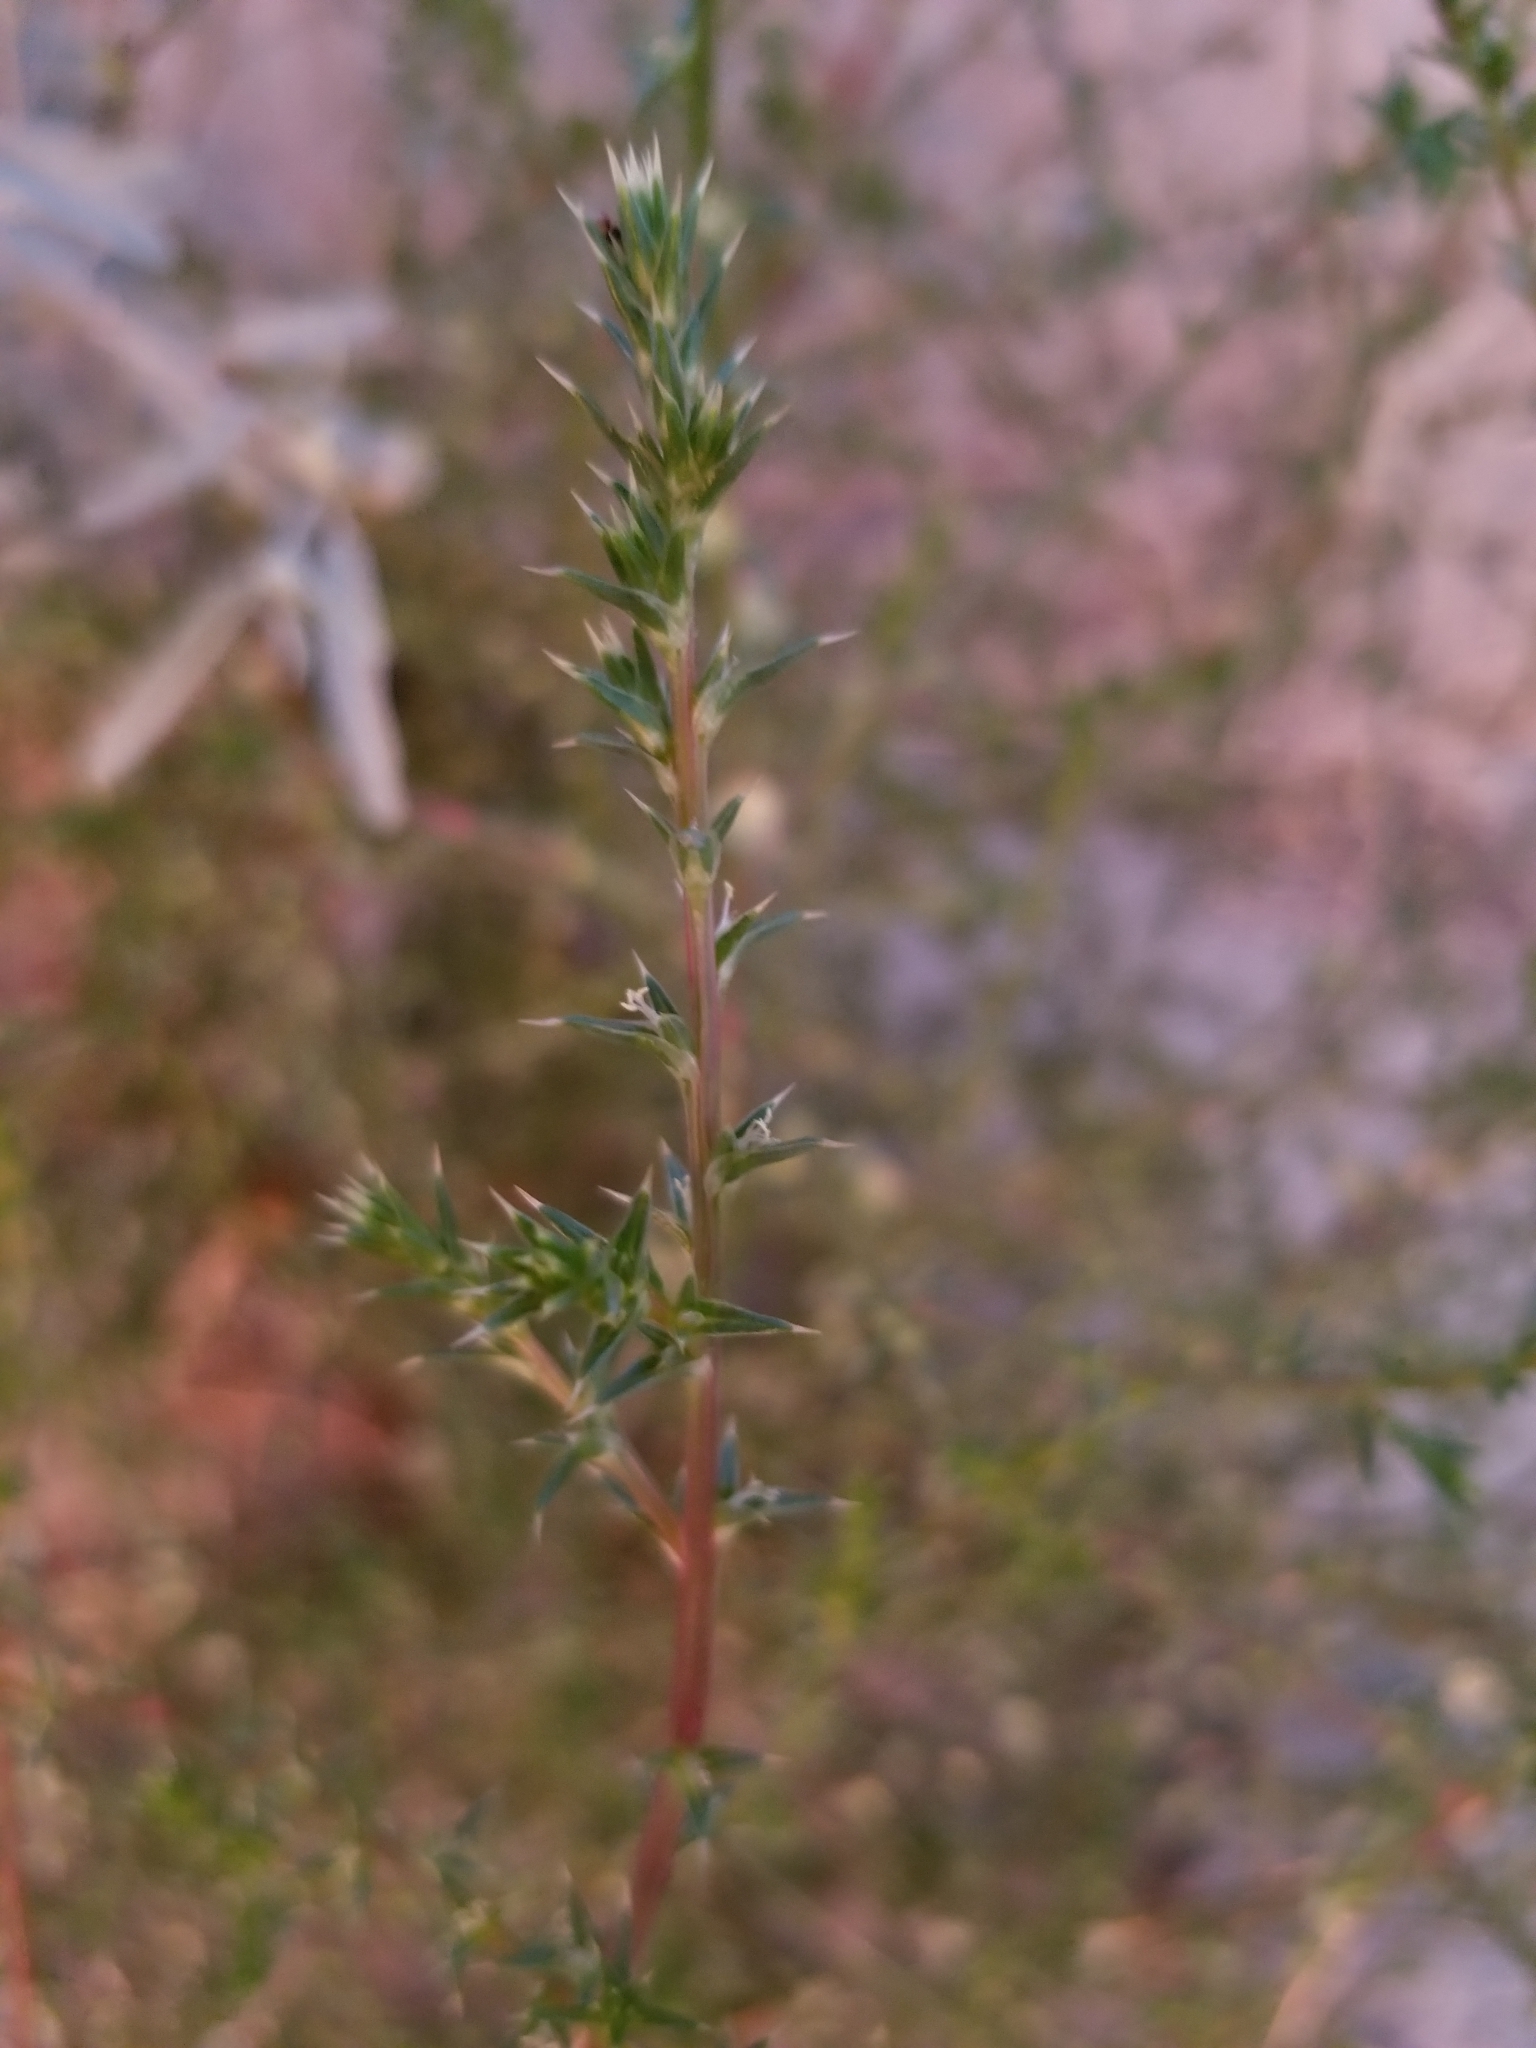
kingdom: Plantae
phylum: Tracheophyta
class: Magnoliopsida
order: Caryophyllales
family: Amaranthaceae
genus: Salsola
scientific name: Salsola tragus
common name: Prickly russian thistle
